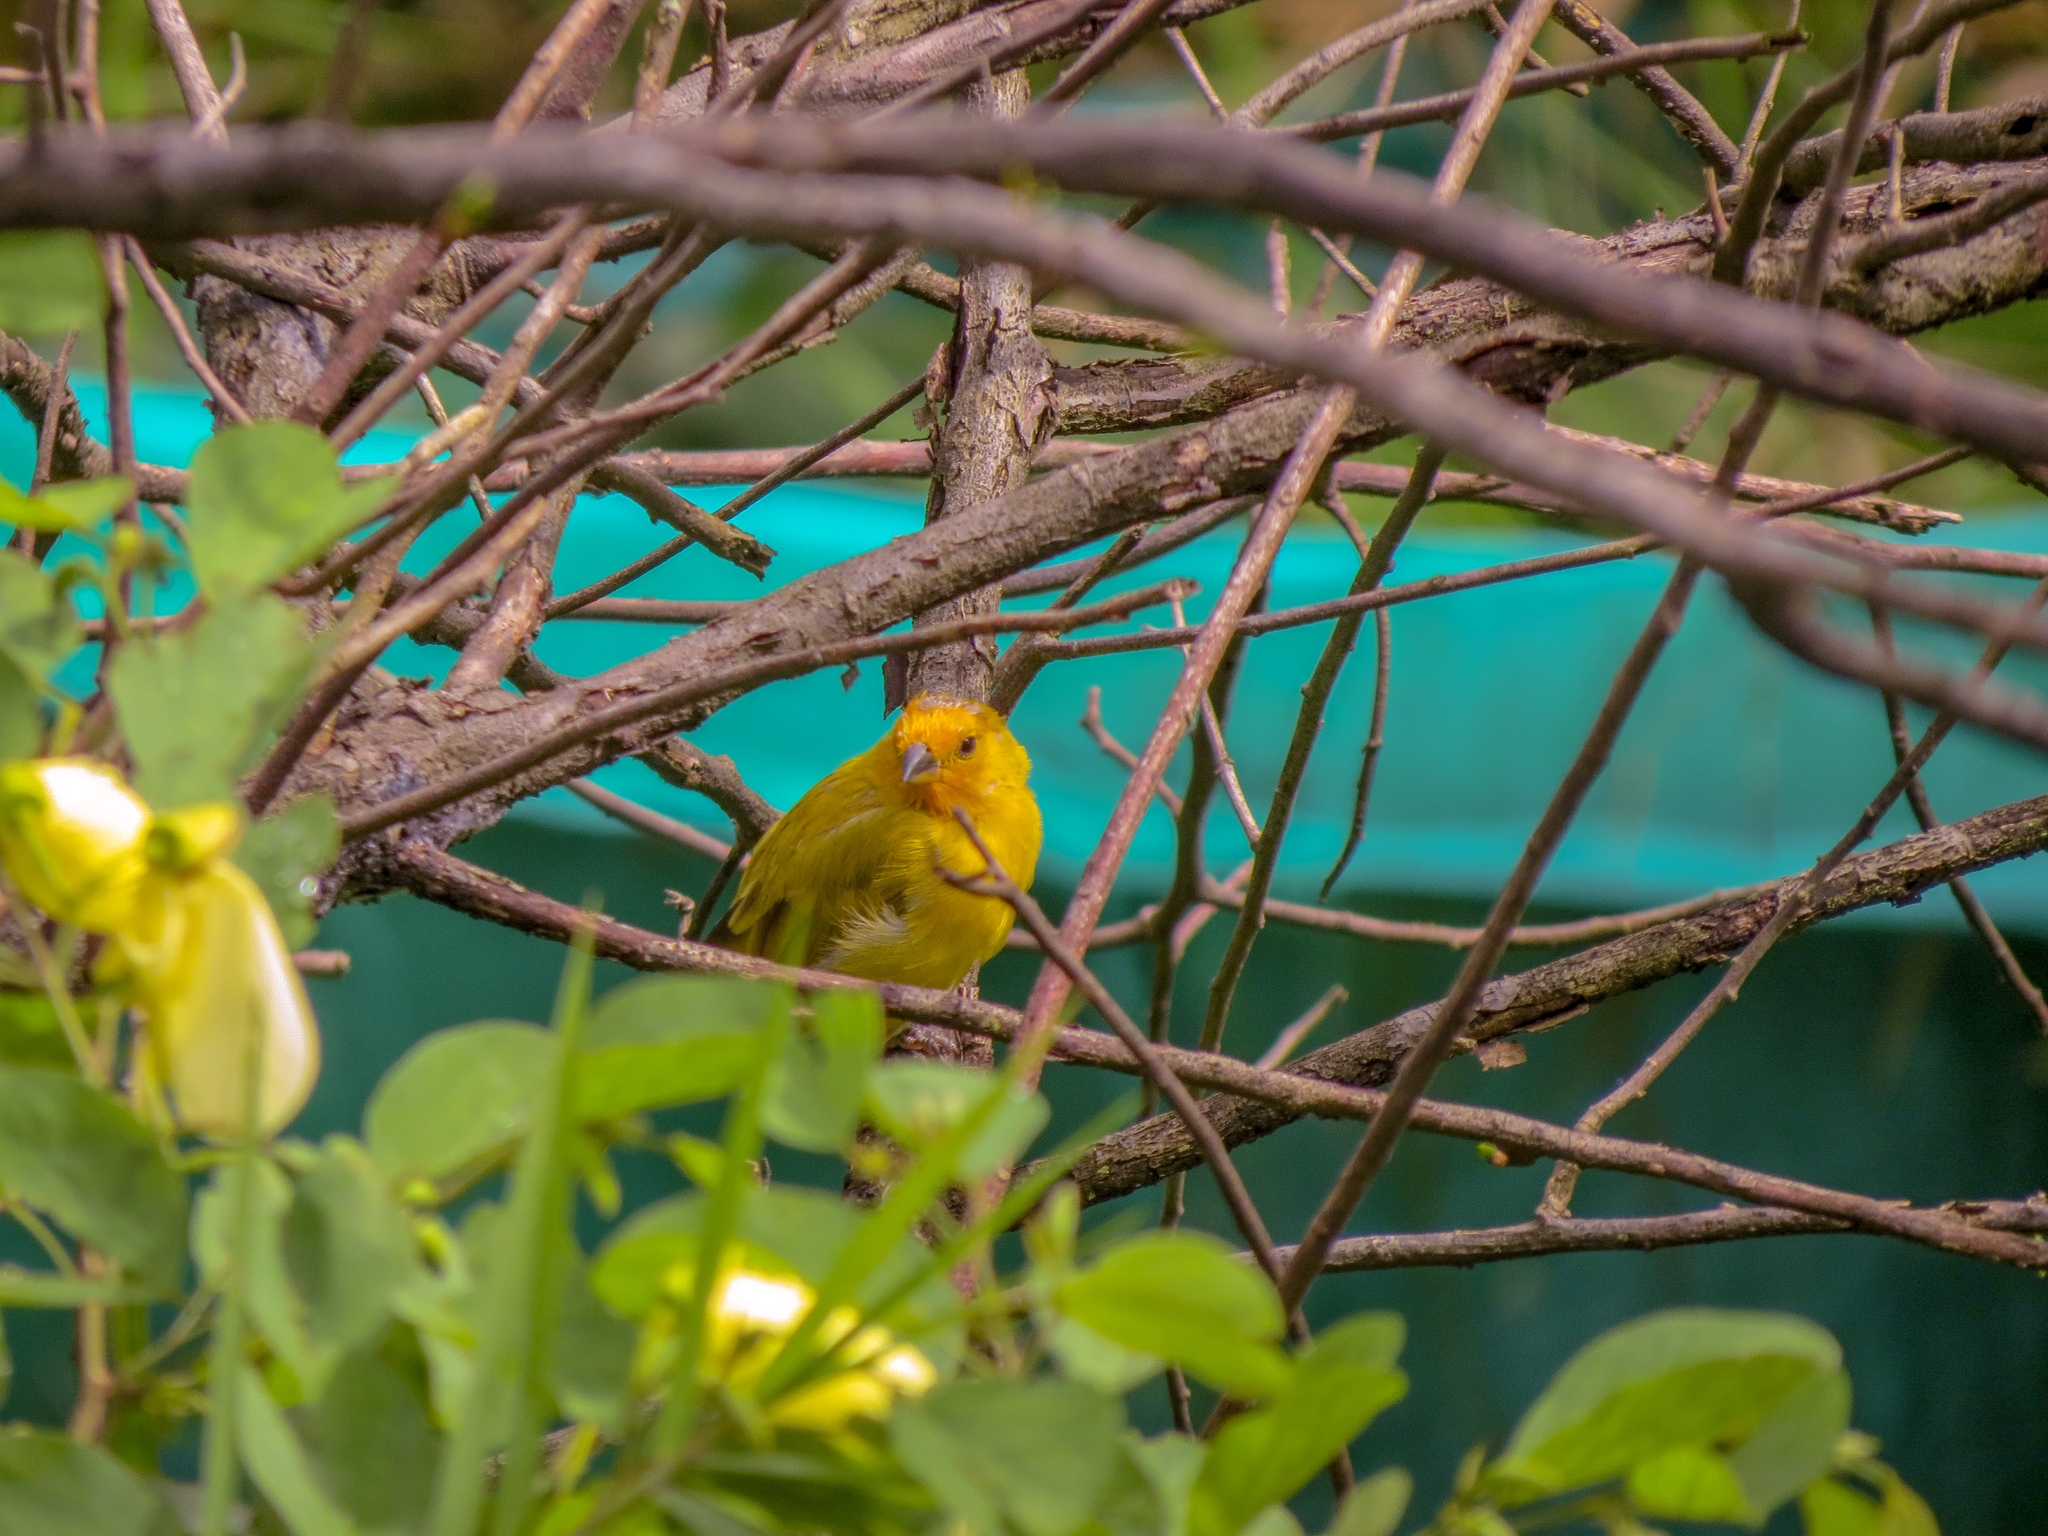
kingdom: Animalia
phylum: Chordata
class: Aves
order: Passeriformes
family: Thraupidae
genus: Sicalis
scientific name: Sicalis flaveola
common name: Saffron finch
